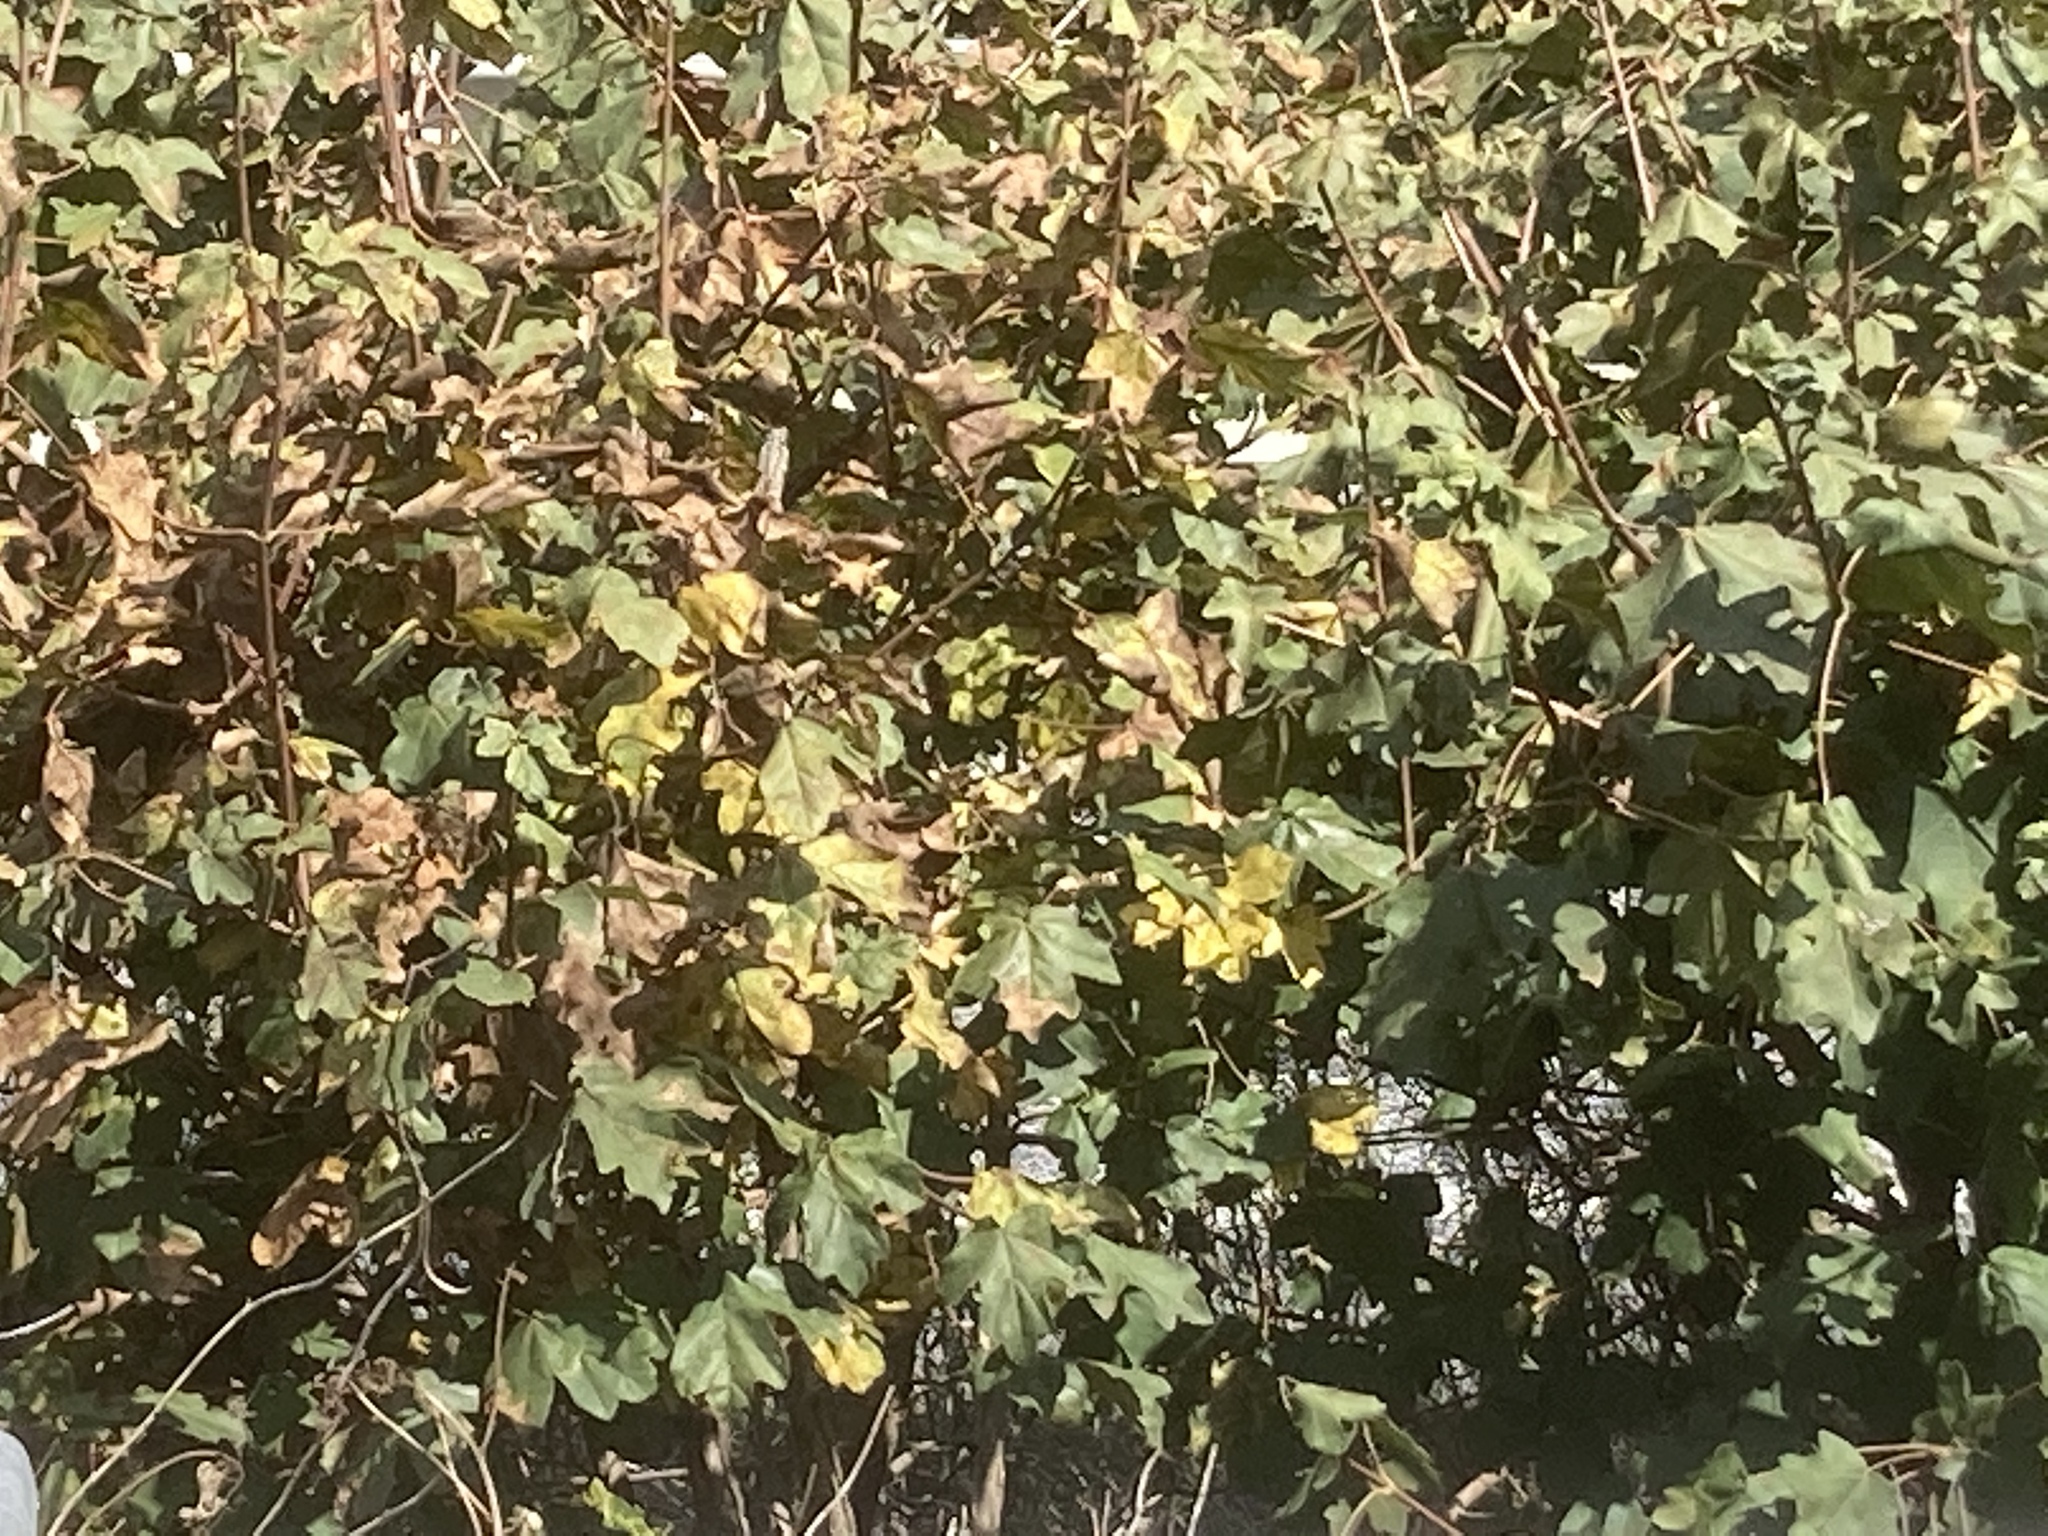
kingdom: Plantae
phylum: Tracheophyta
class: Magnoliopsida
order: Sapindales
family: Sapindaceae
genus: Acer
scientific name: Acer campestre
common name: Field maple
